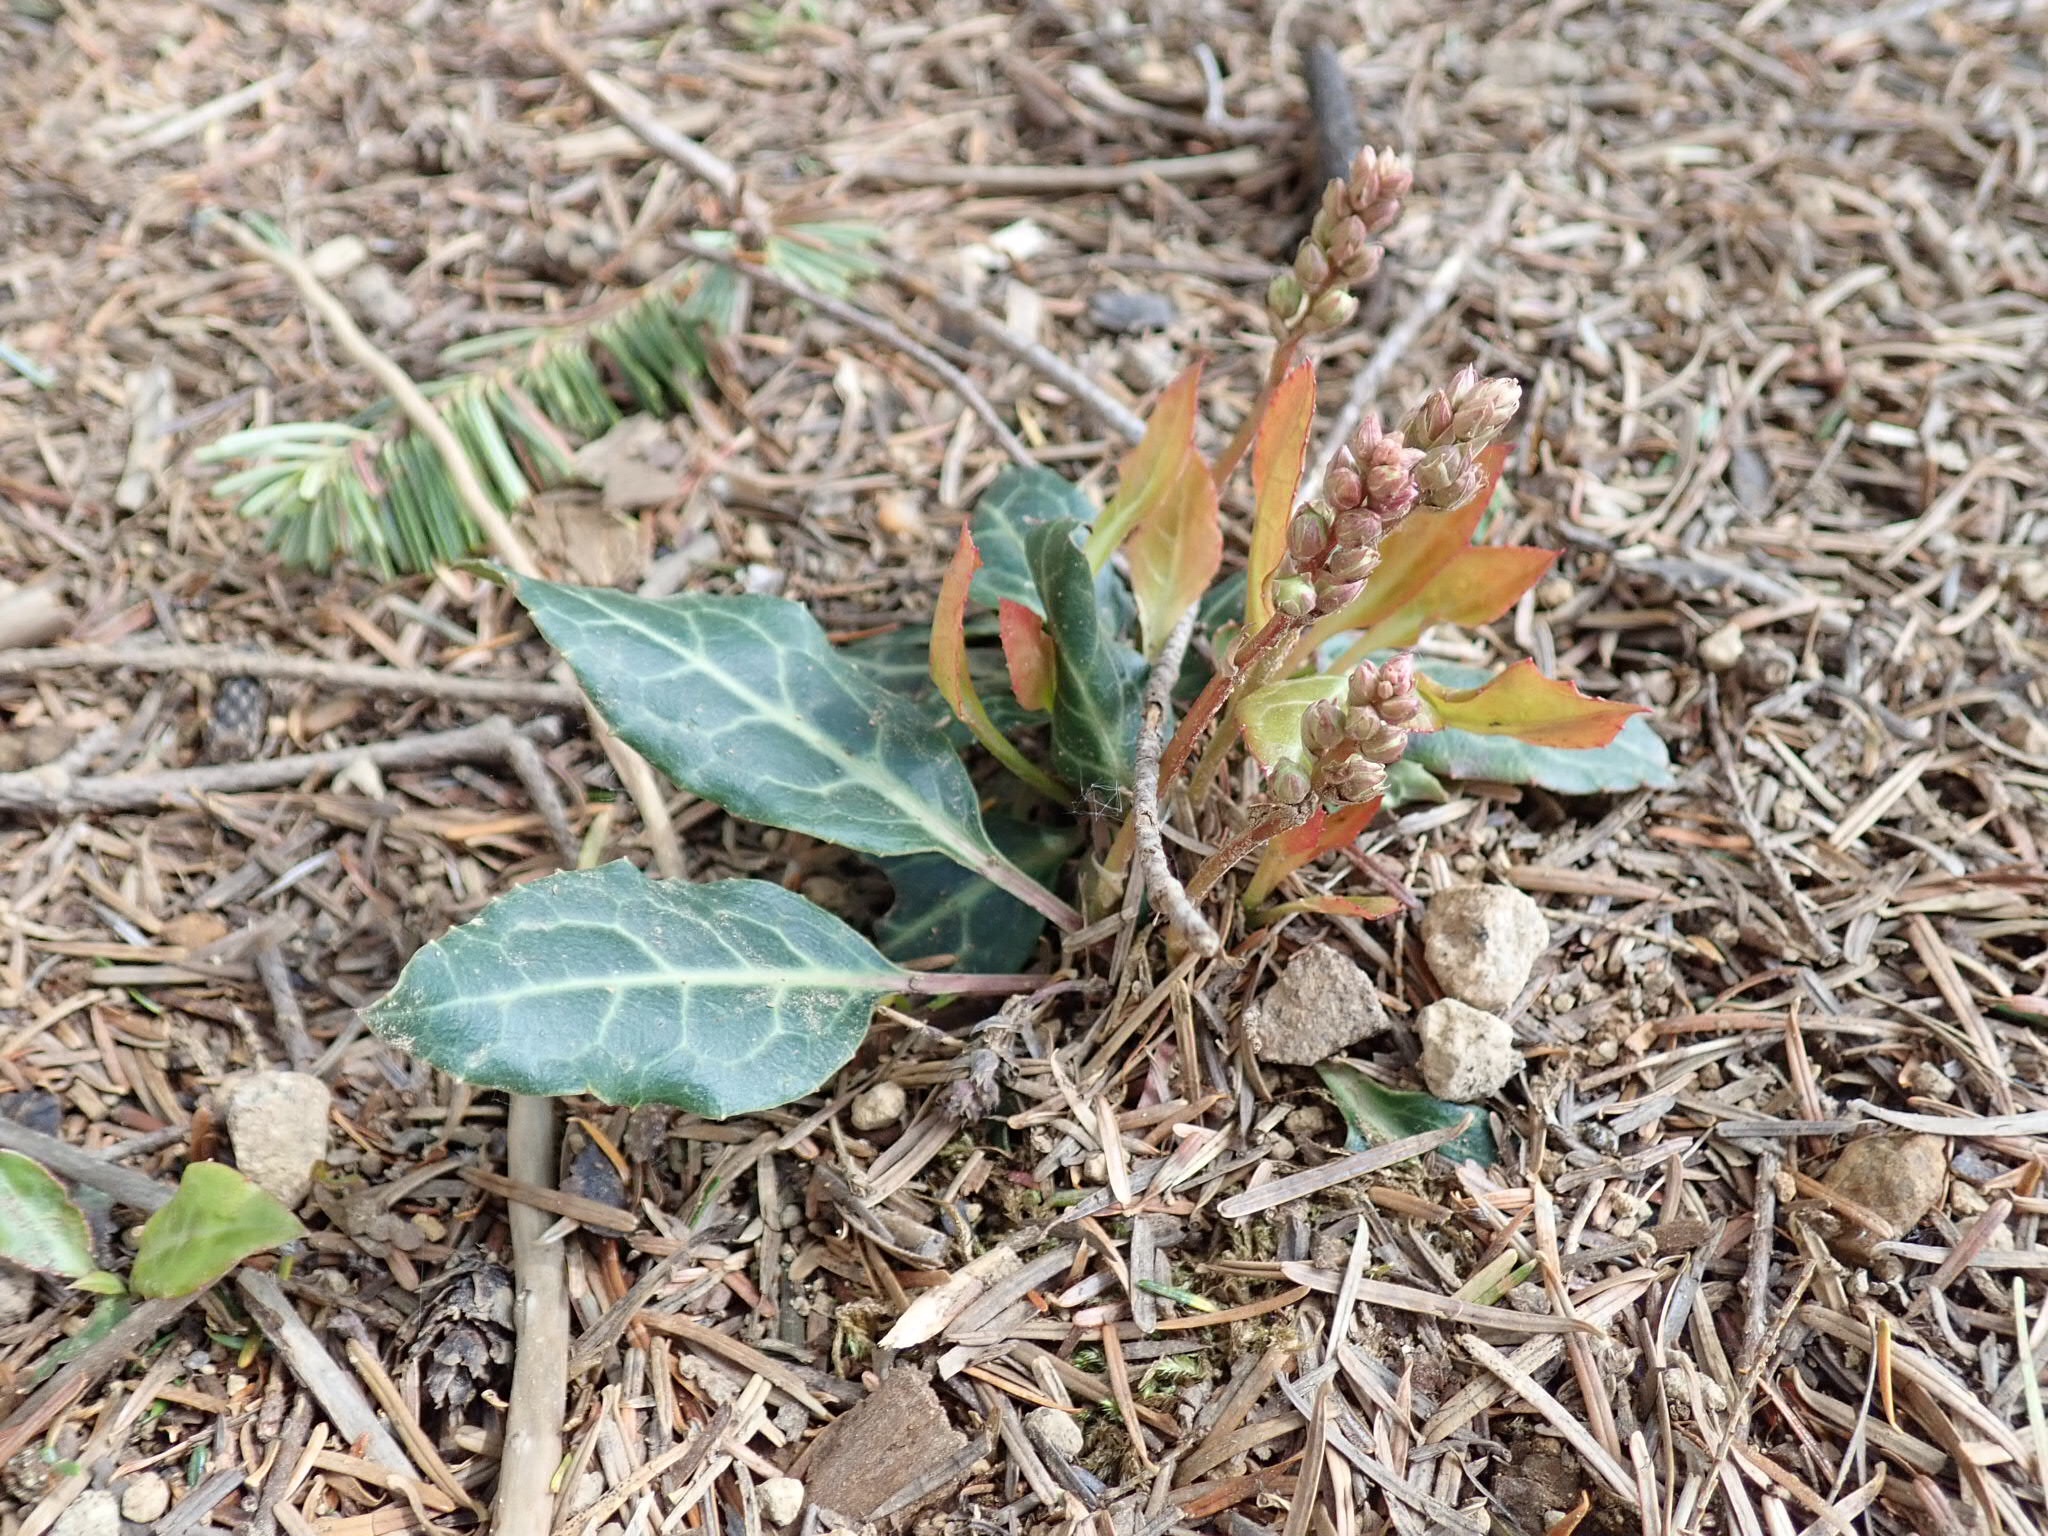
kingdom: Plantae
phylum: Tracheophyta
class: Magnoliopsida
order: Ericales
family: Ericaceae
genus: Pyrola
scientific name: Pyrola picta
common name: White-vein wintergreen
